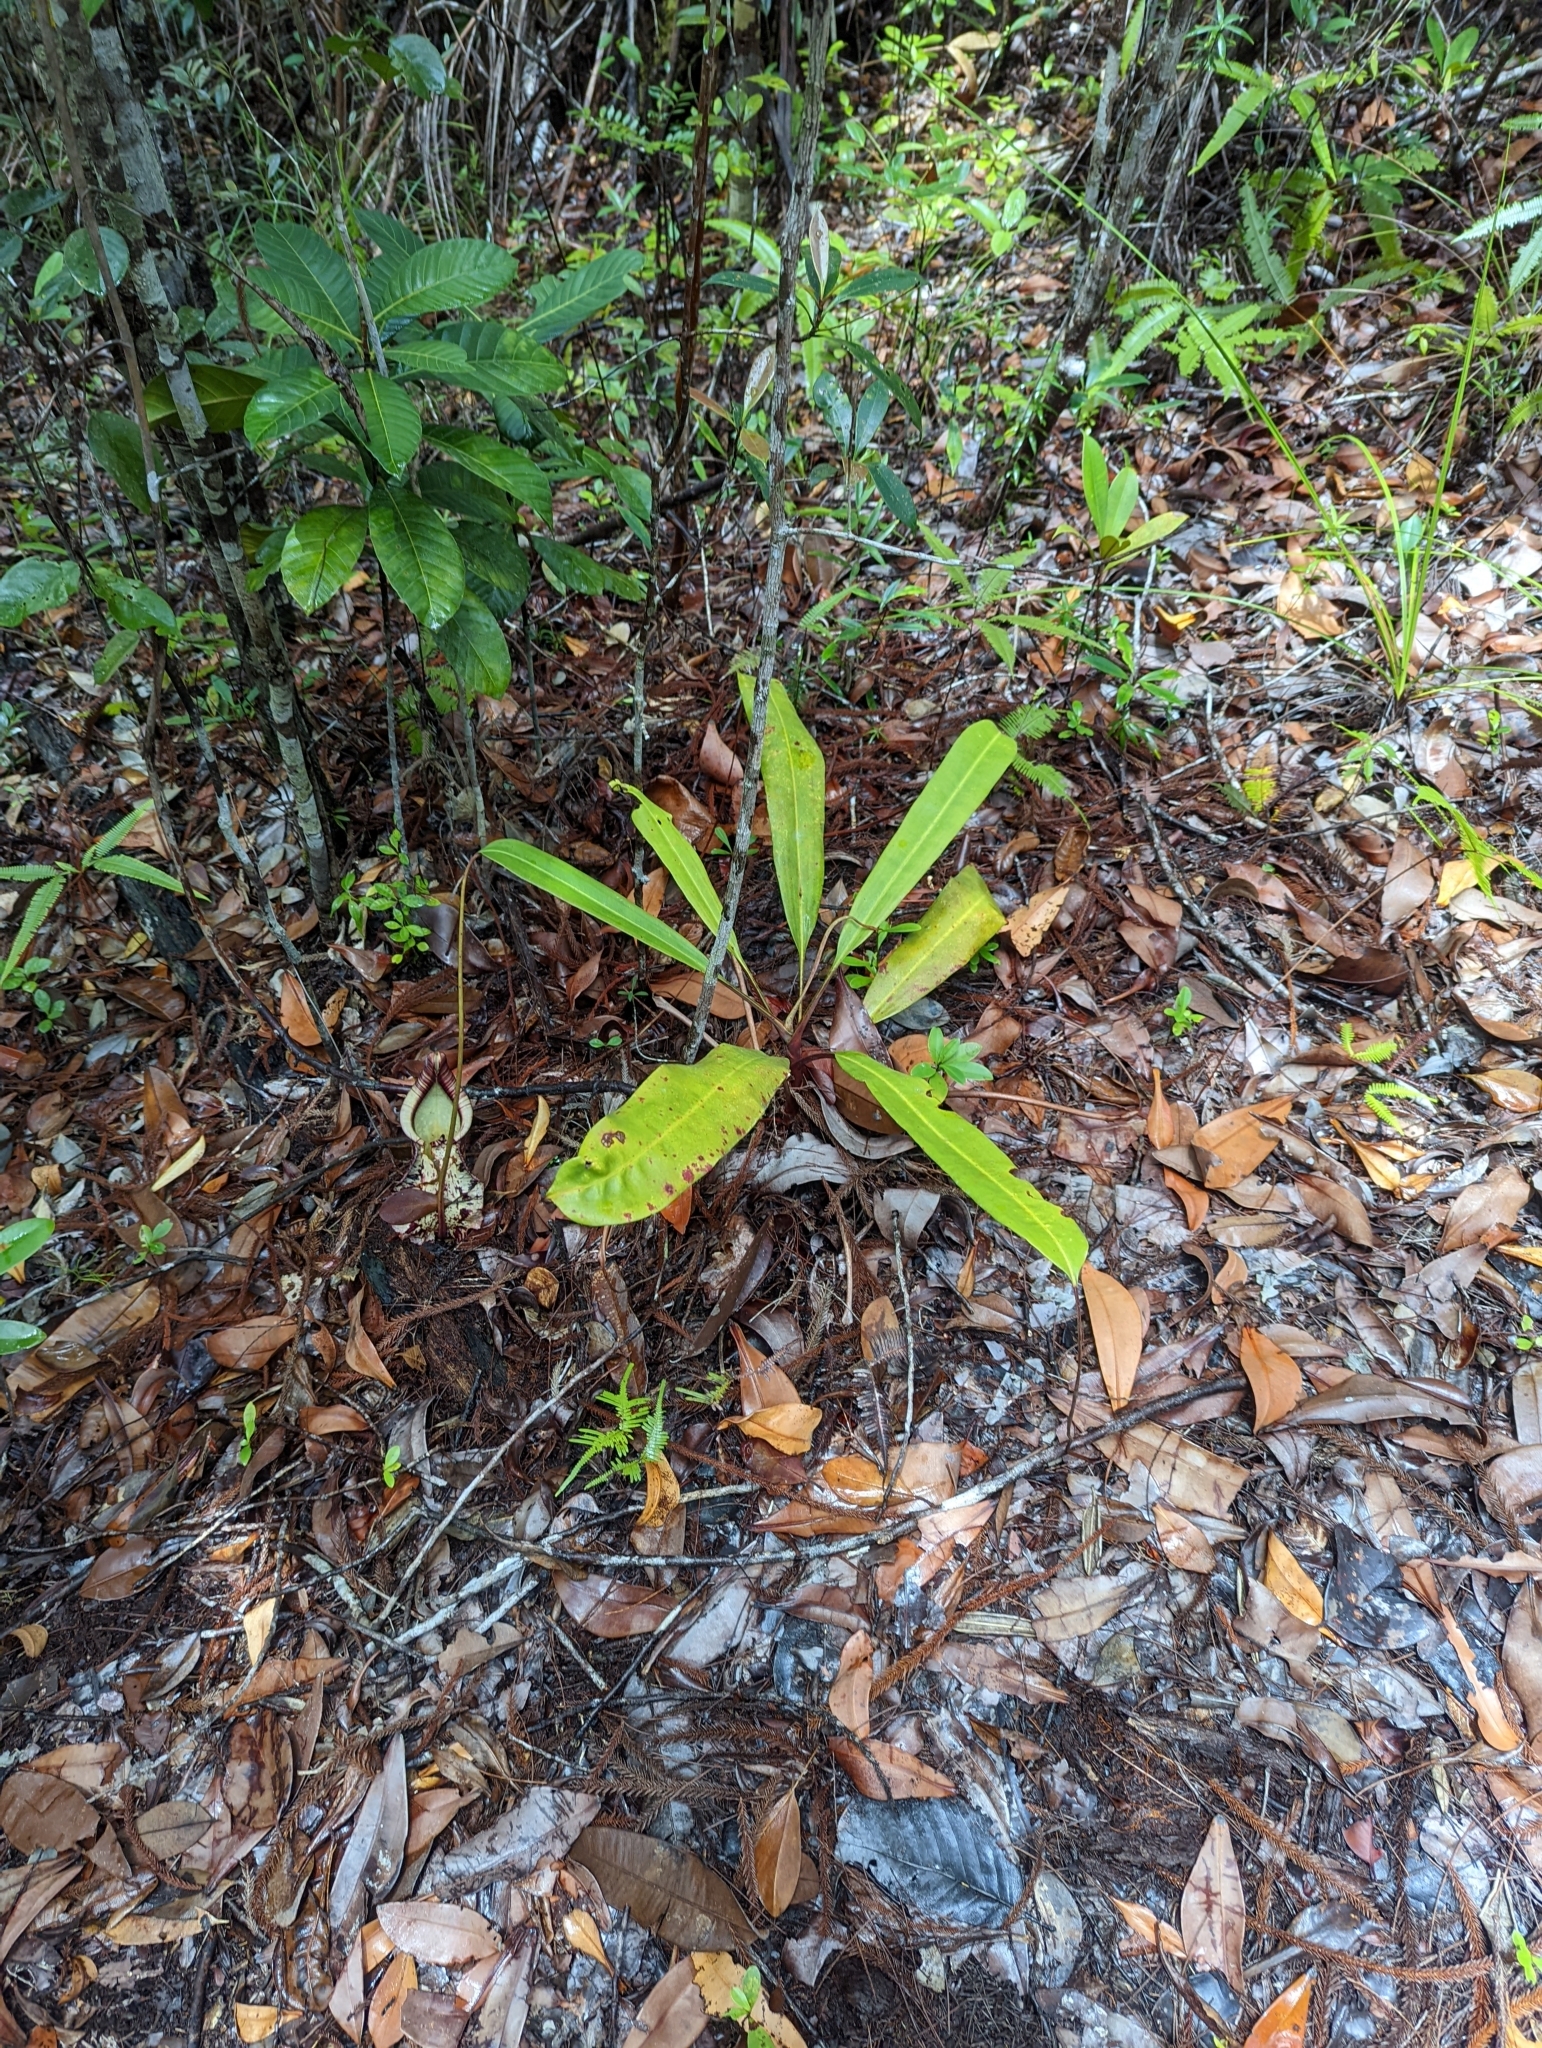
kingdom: Plantae
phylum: Tracheophyta
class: Magnoliopsida
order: Caryophyllales
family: Nepenthaceae
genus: Nepenthes
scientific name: Nepenthes rafflesiana
